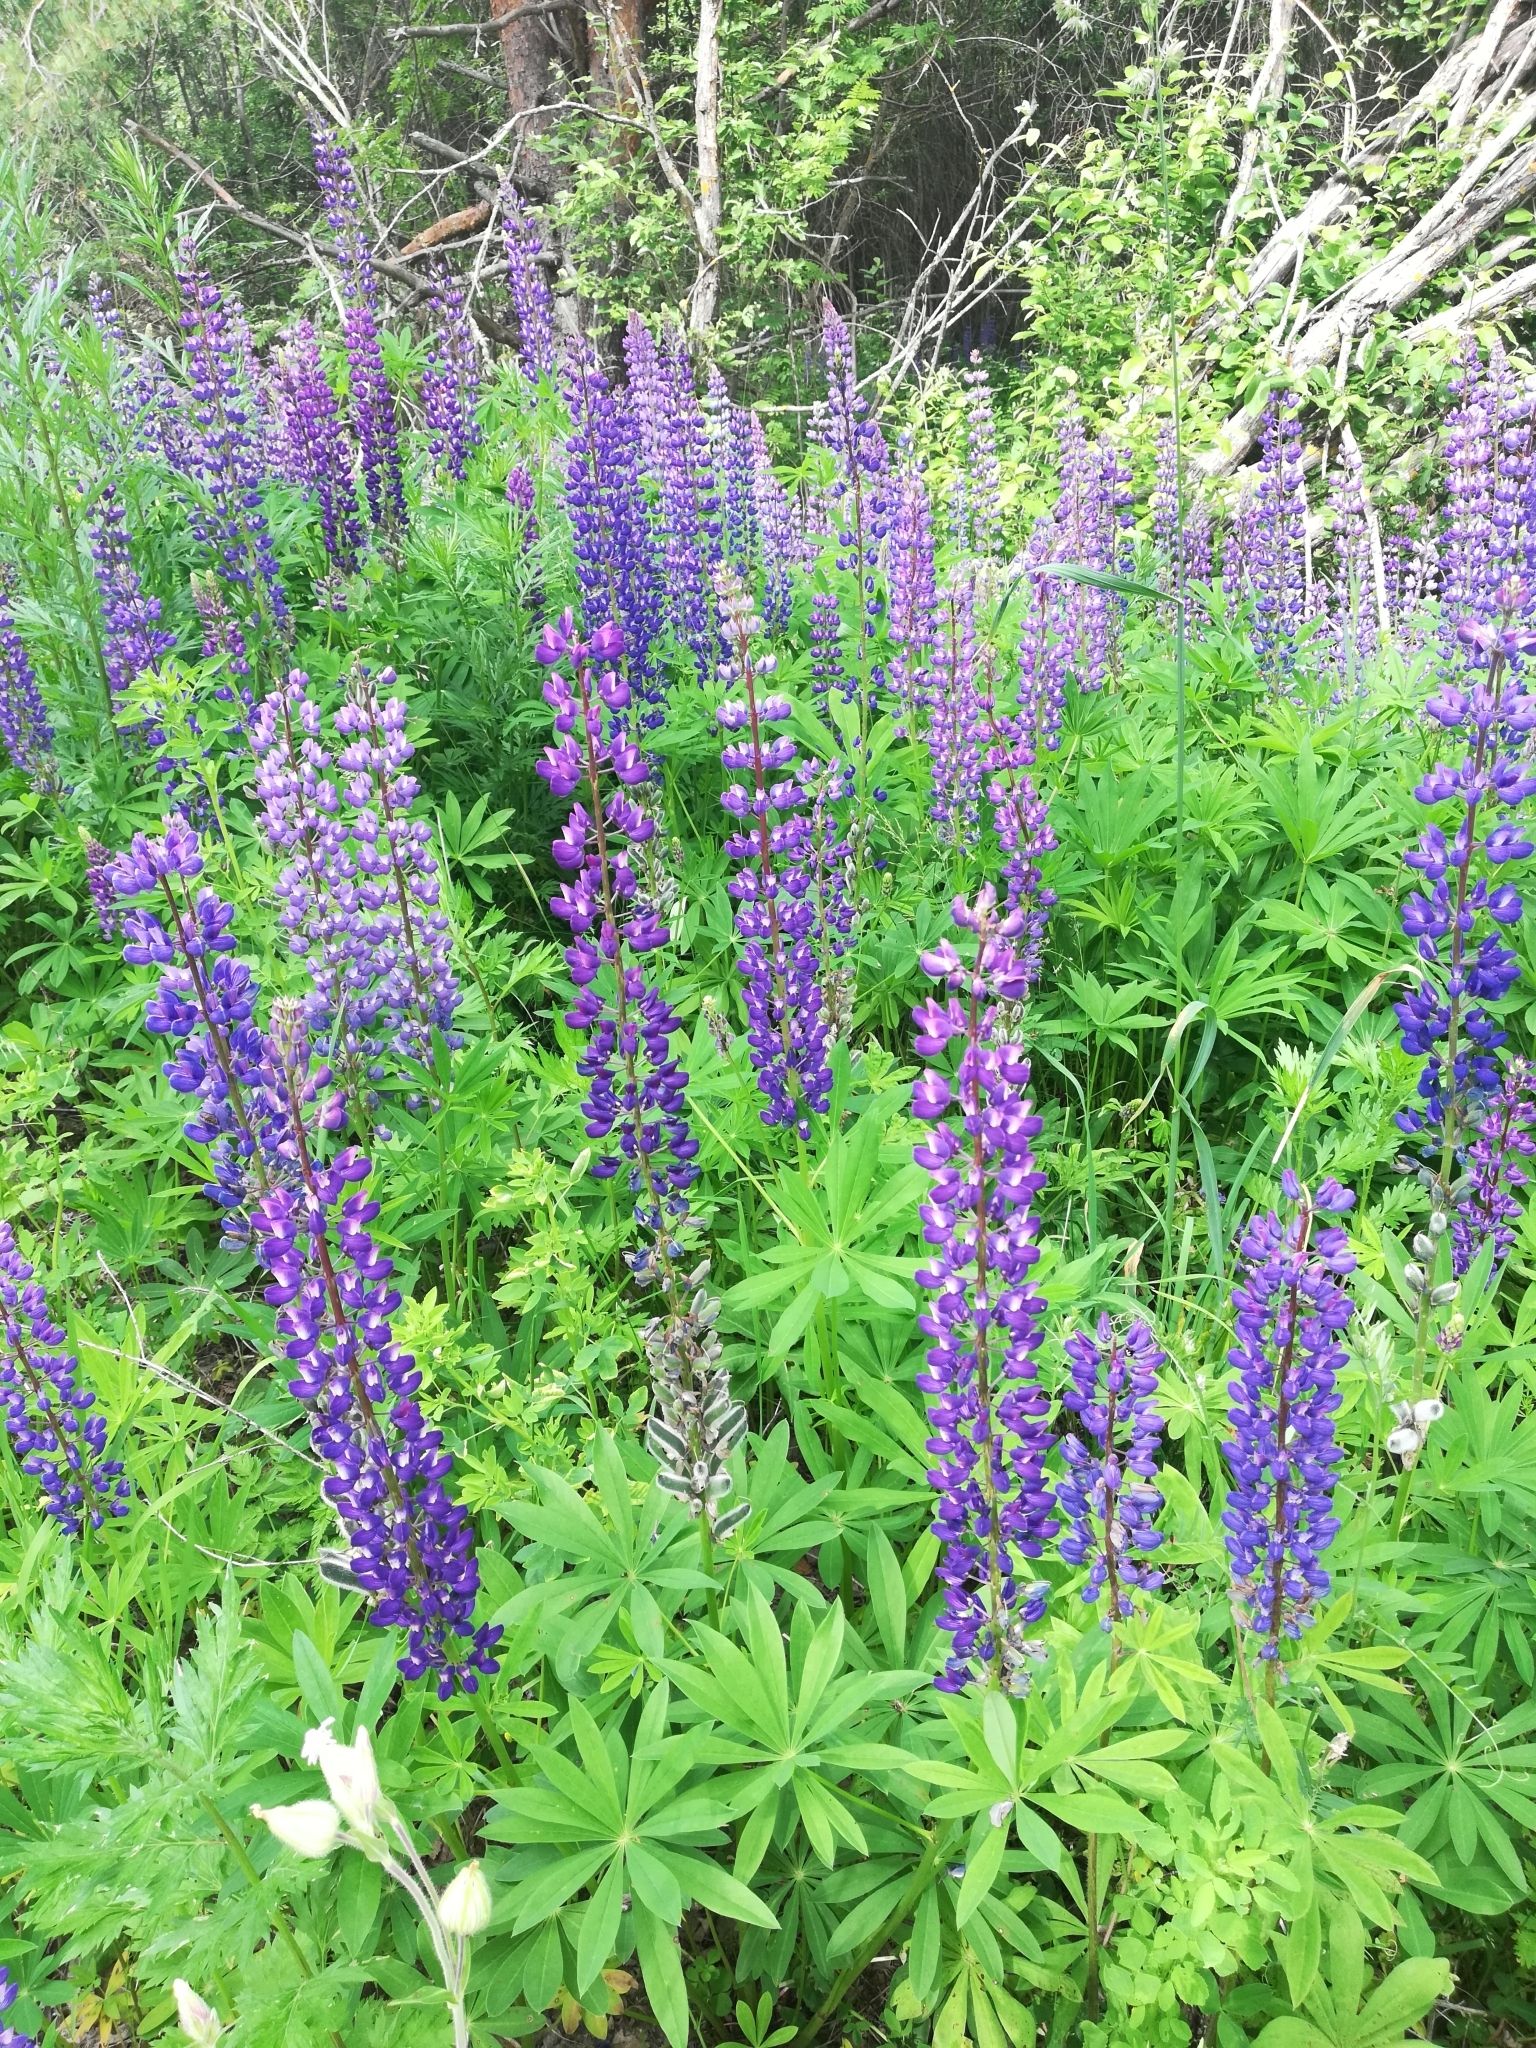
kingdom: Plantae
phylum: Tracheophyta
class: Magnoliopsida
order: Fabales
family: Fabaceae
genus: Lupinus
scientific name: Lupinus polyphyllus
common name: Garden lupin
